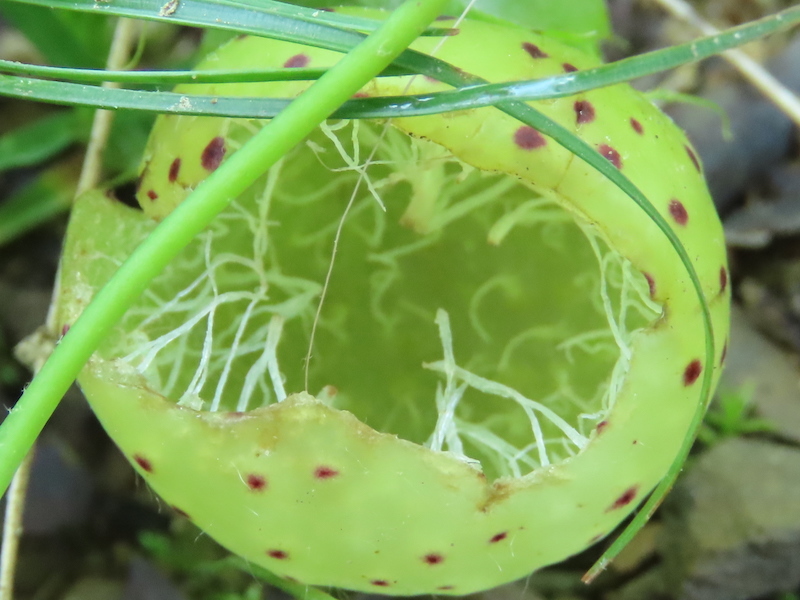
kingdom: Animalia
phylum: Arthropoda
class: Insecta
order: Hymenoptera
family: Cynipidae
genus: Amphibolips
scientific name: Amphibolips
